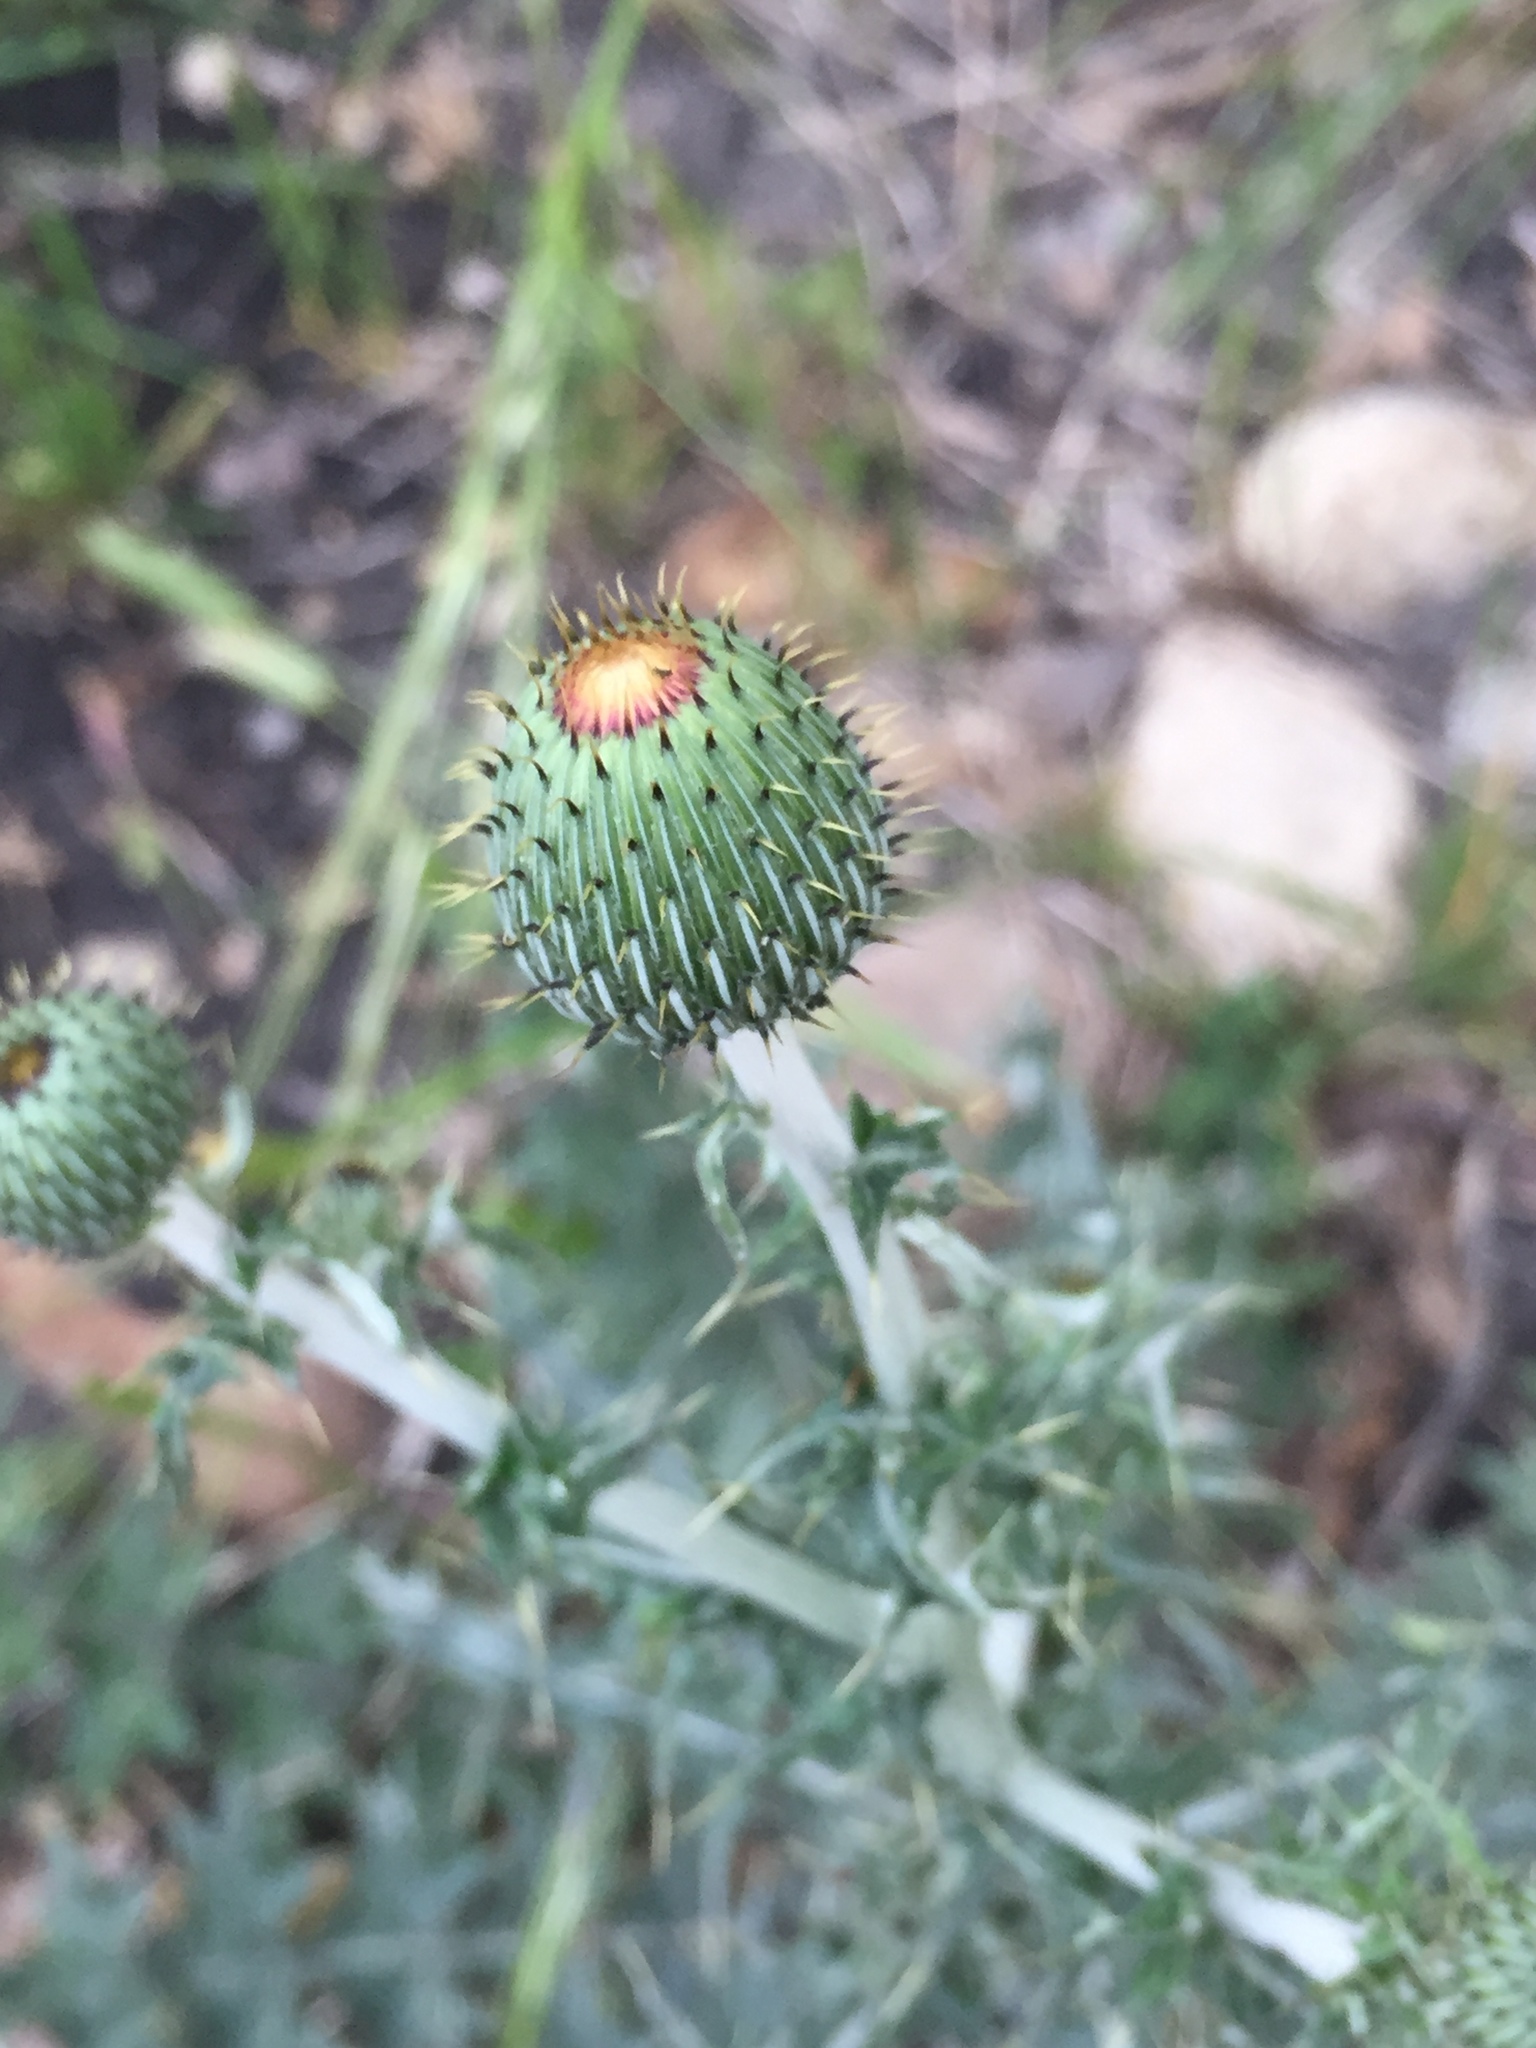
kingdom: Plantae
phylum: Tracheophyta
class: Magnoliopsida
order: Asterales
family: Asteraceae
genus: Cirsium
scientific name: Cirsium texanum
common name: Texas purple thistle
